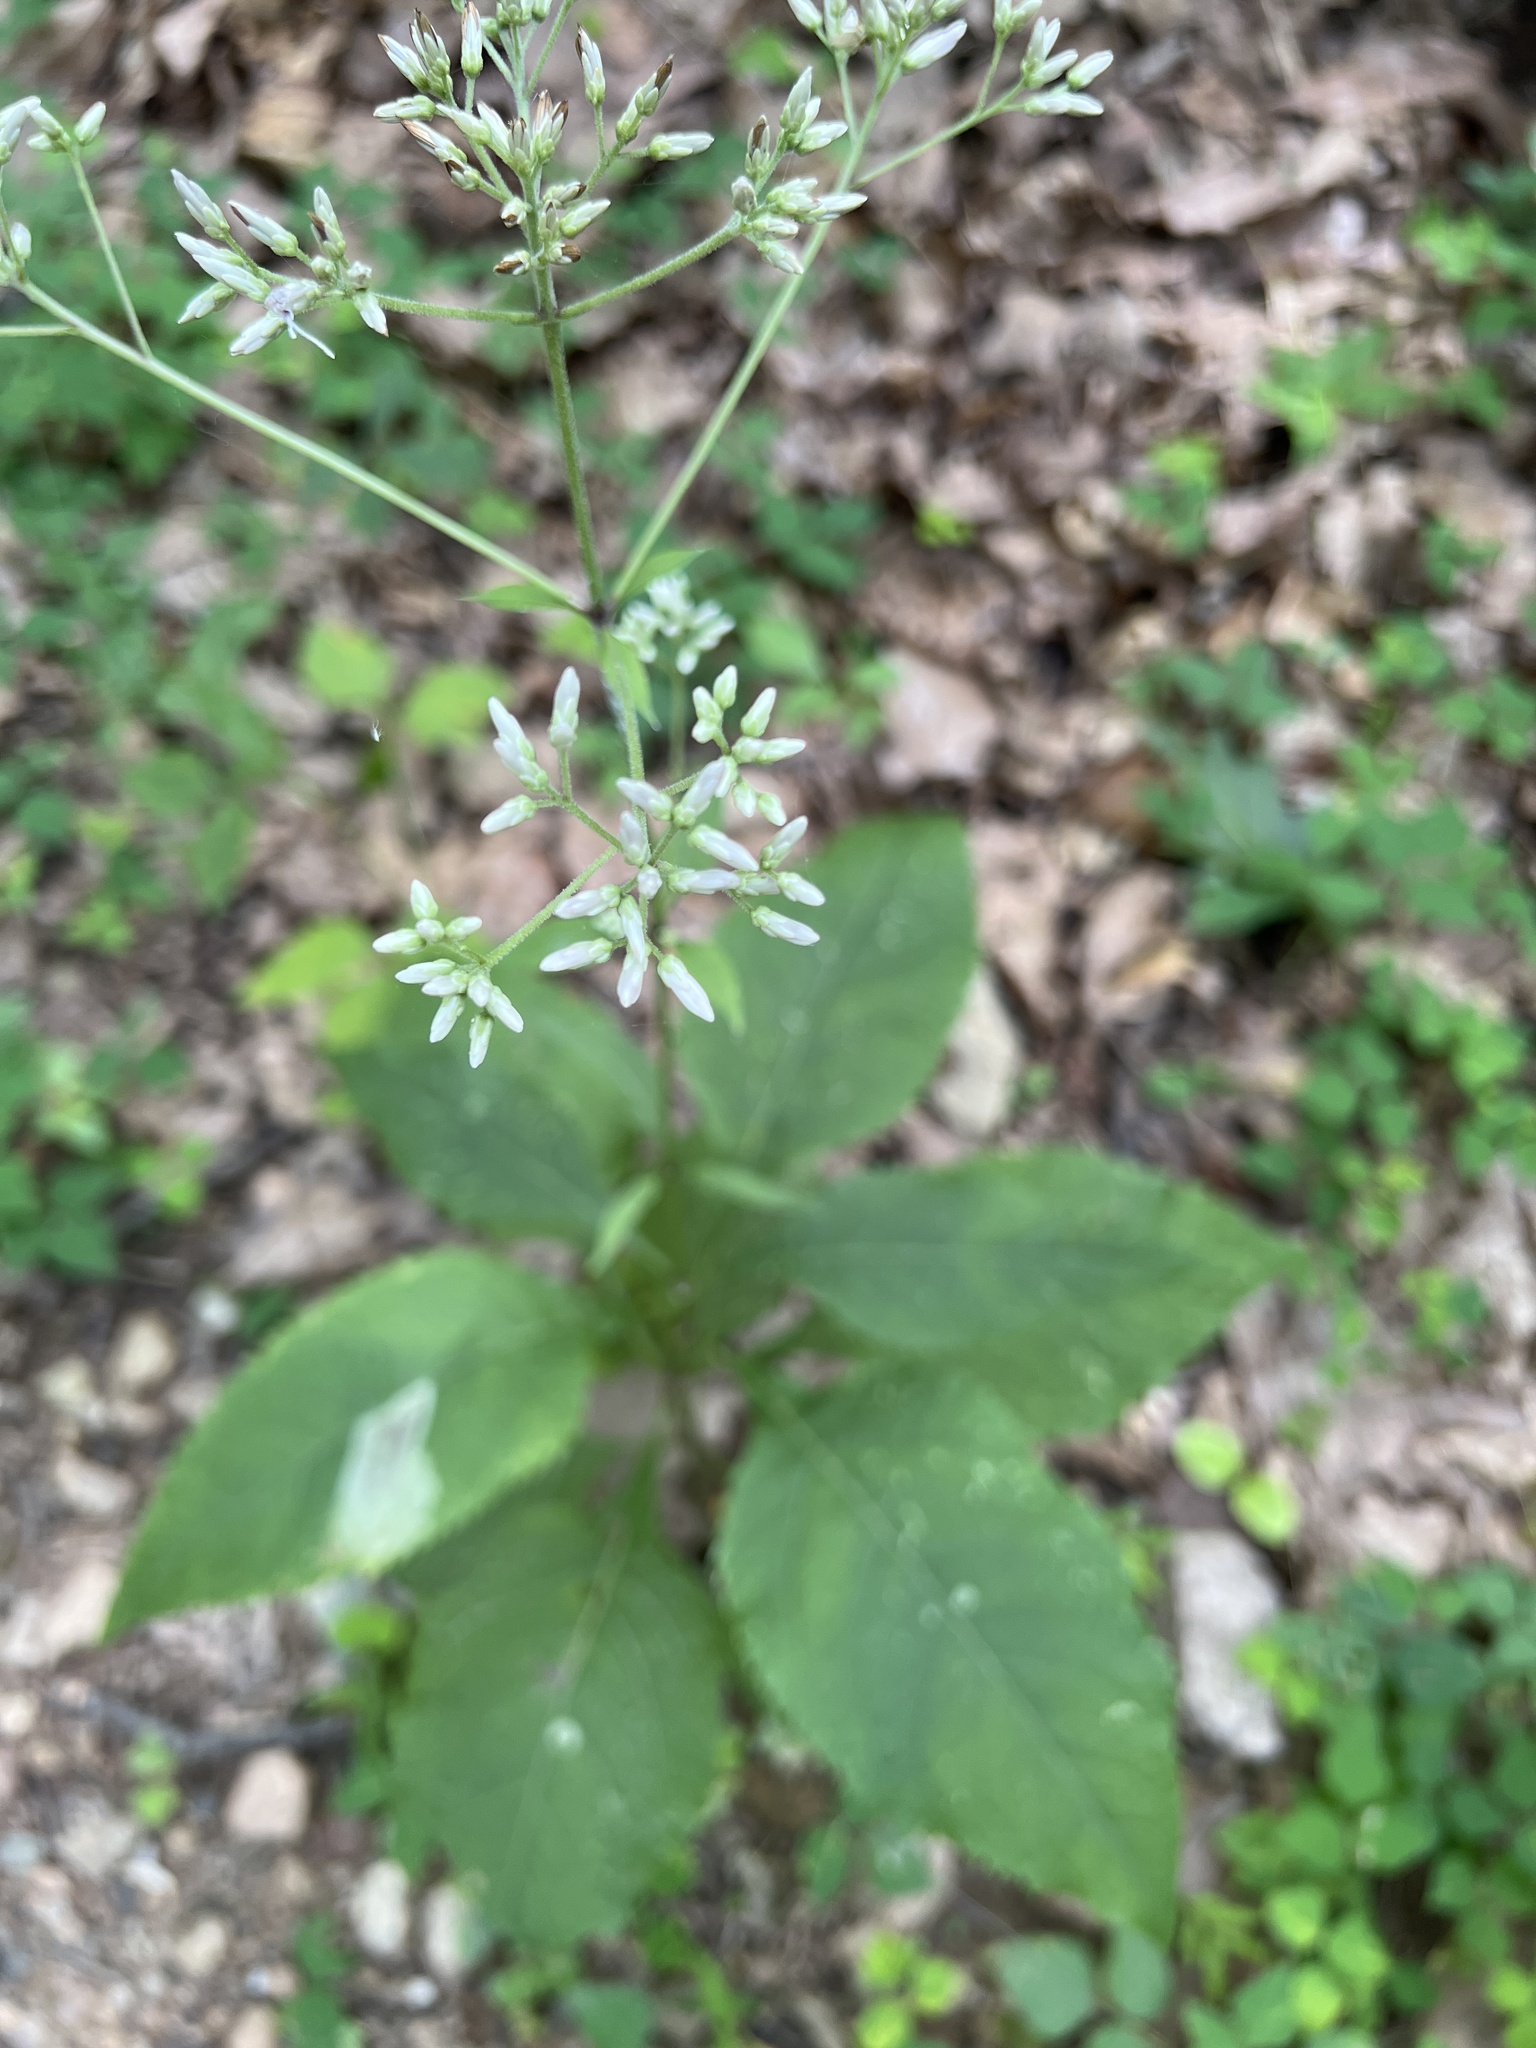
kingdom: Plantae
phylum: Tracheophyta
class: Magnoliopsida
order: Asterales
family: Asteraceae
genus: Eutrochium
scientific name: Eutrochium purpureum
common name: Gravelroot
